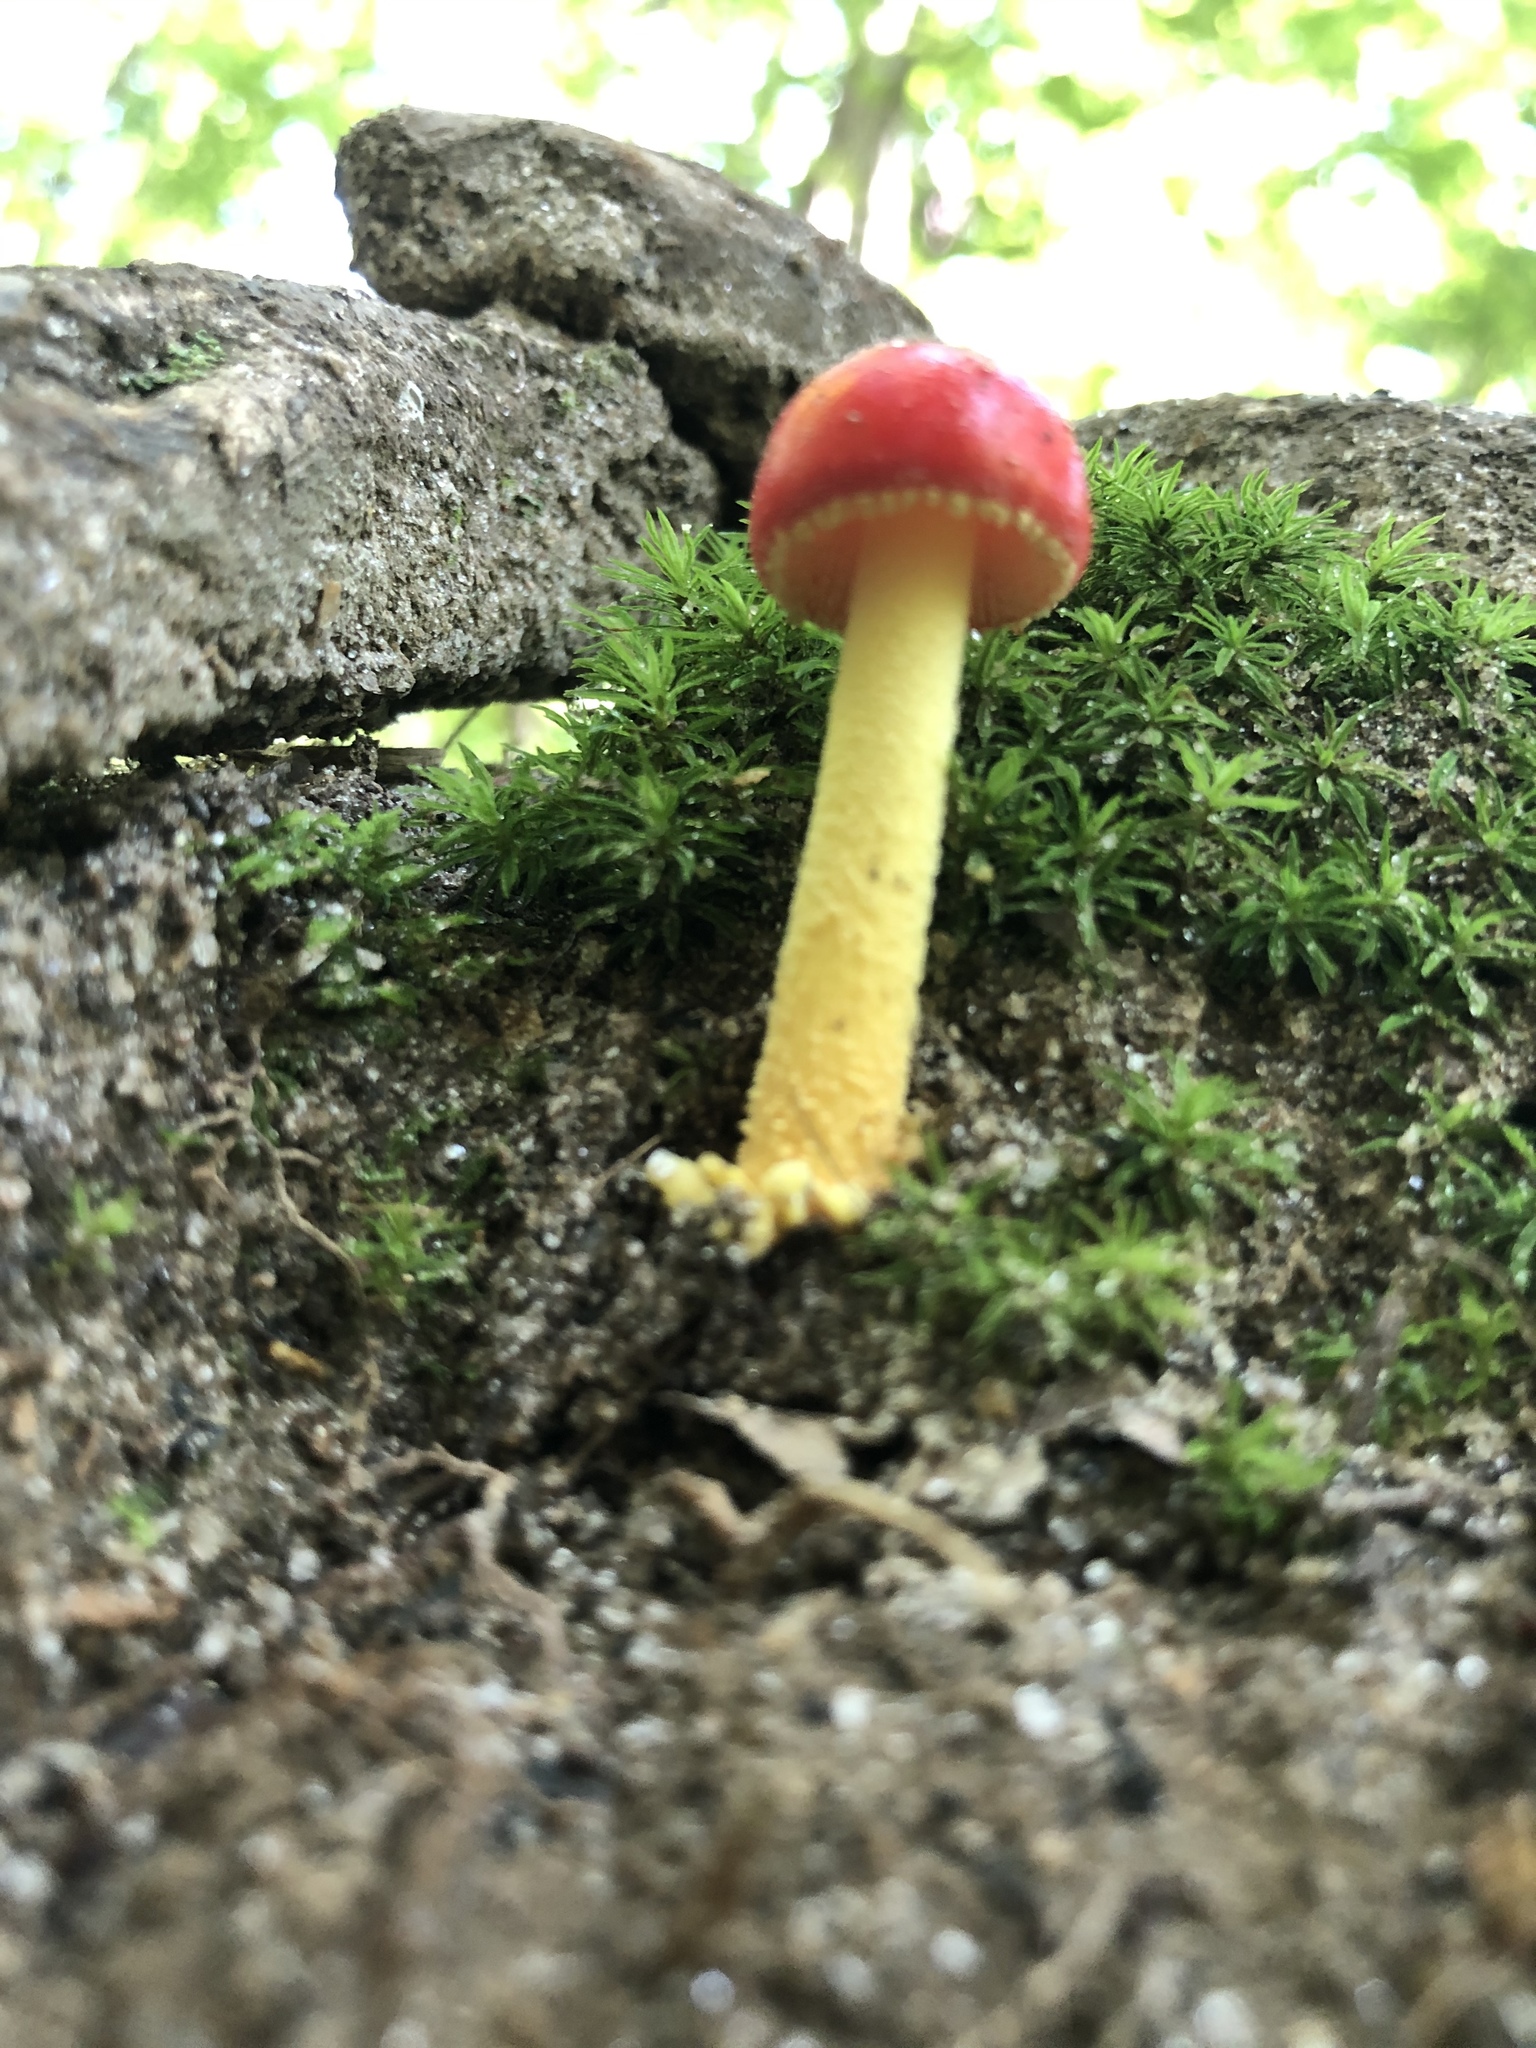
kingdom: Fungi
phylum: Basidiomycota
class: Agaricomycetes
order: Agaricales
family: Amanitaceae
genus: Amanita
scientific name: Amanita parcivolvata
